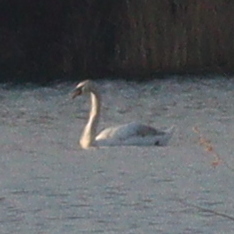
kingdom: Animalia
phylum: Chordata
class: Aves
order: Anseriformes
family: Anatidae
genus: Cygnus
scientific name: Cygnus olor
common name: Mute swan
